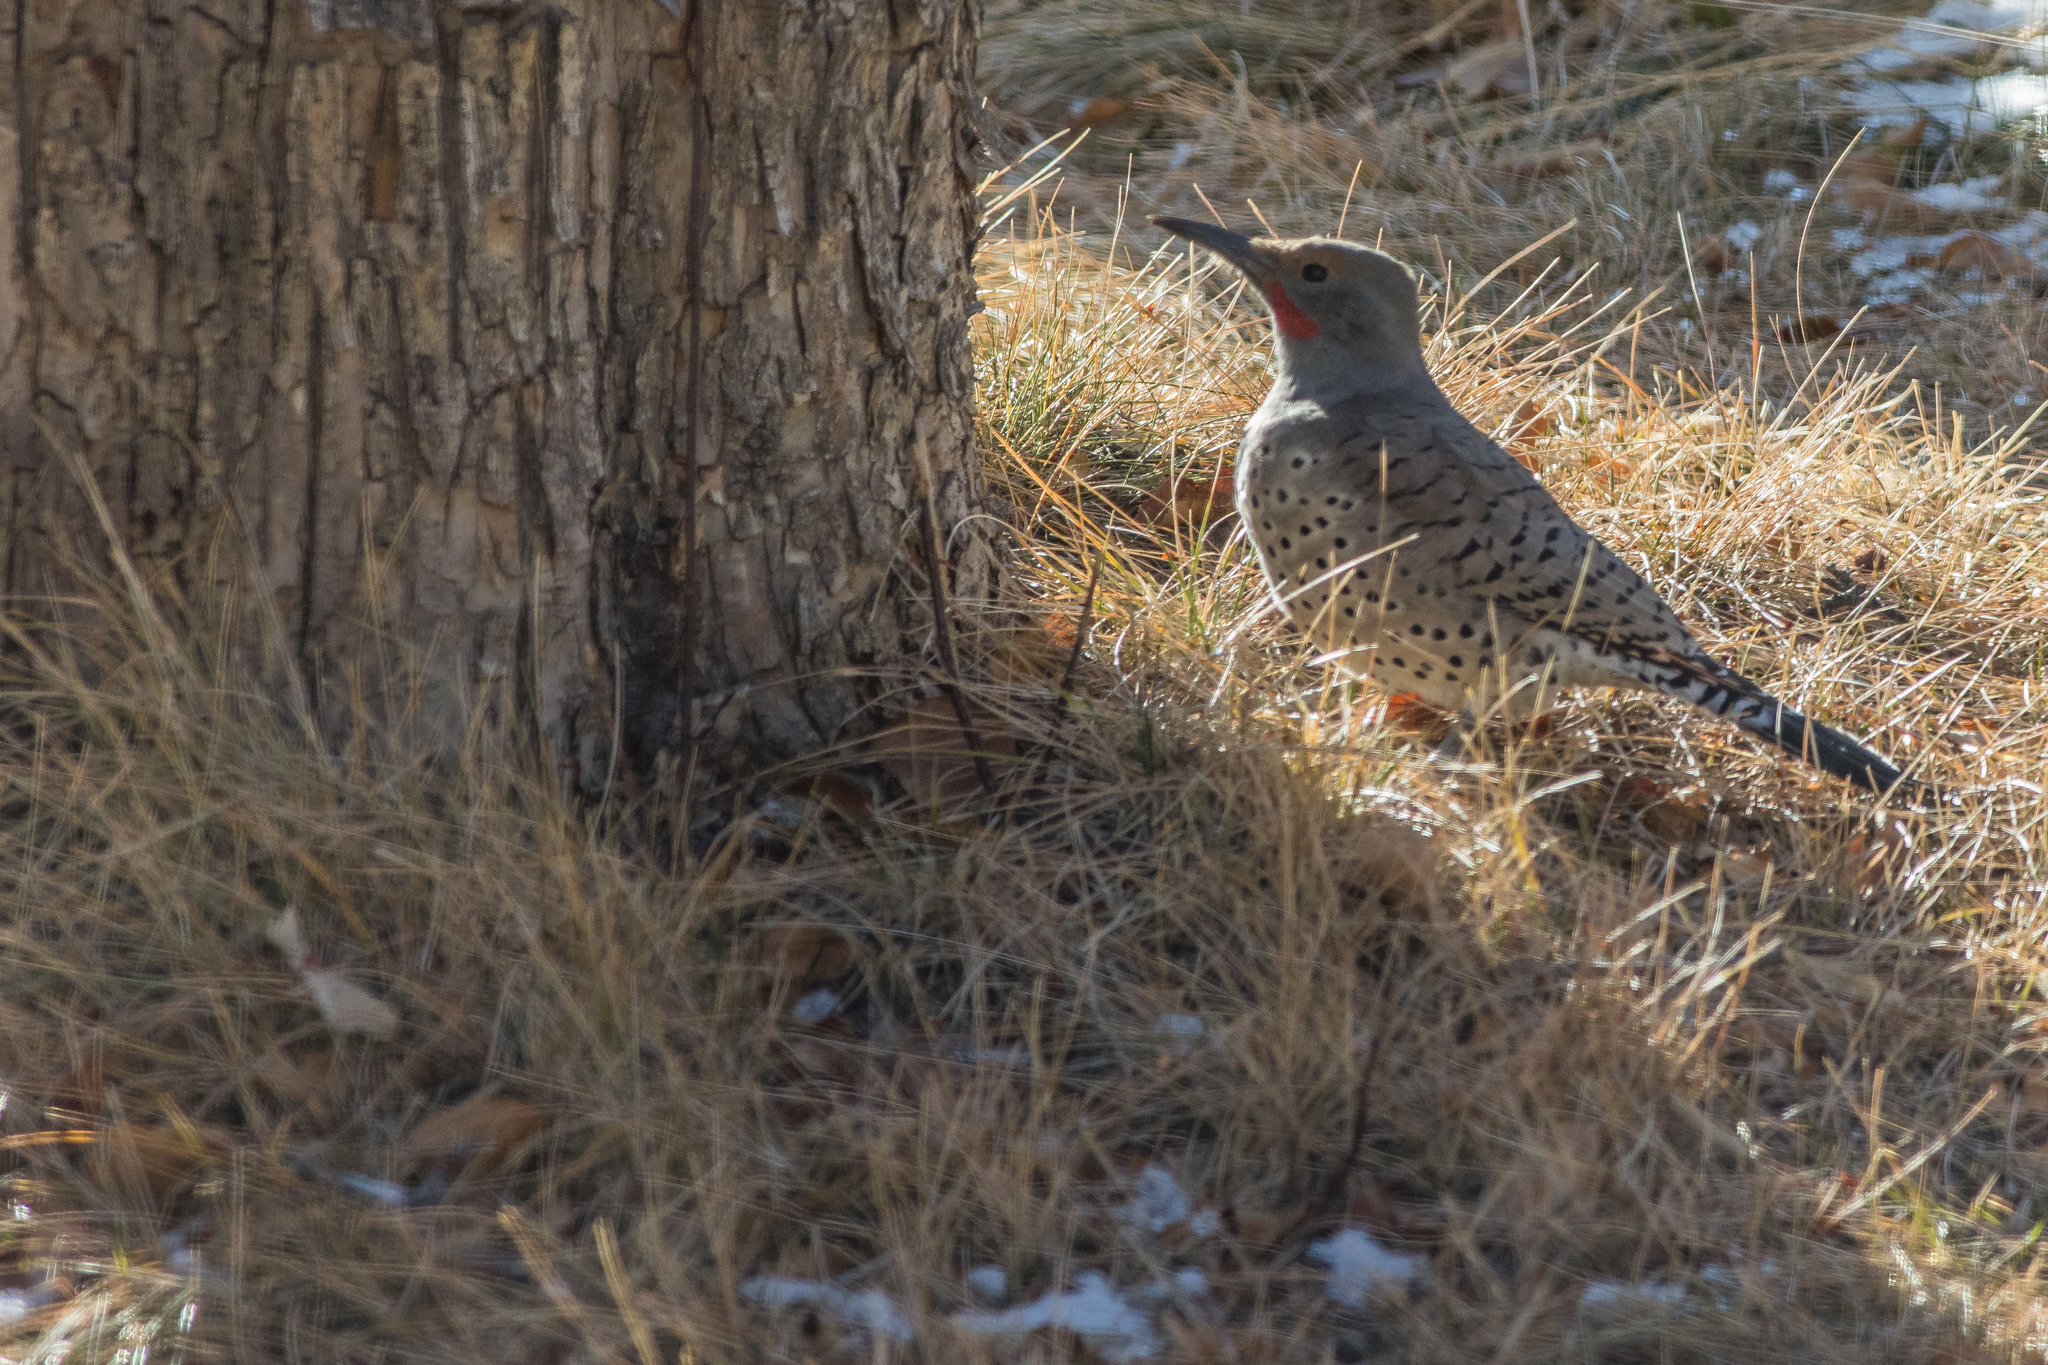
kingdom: Animalia
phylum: Chordata
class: Aves
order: Piciformes
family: Picidae
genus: Colaptes
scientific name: Colaptes auratus
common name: Northern flicker
